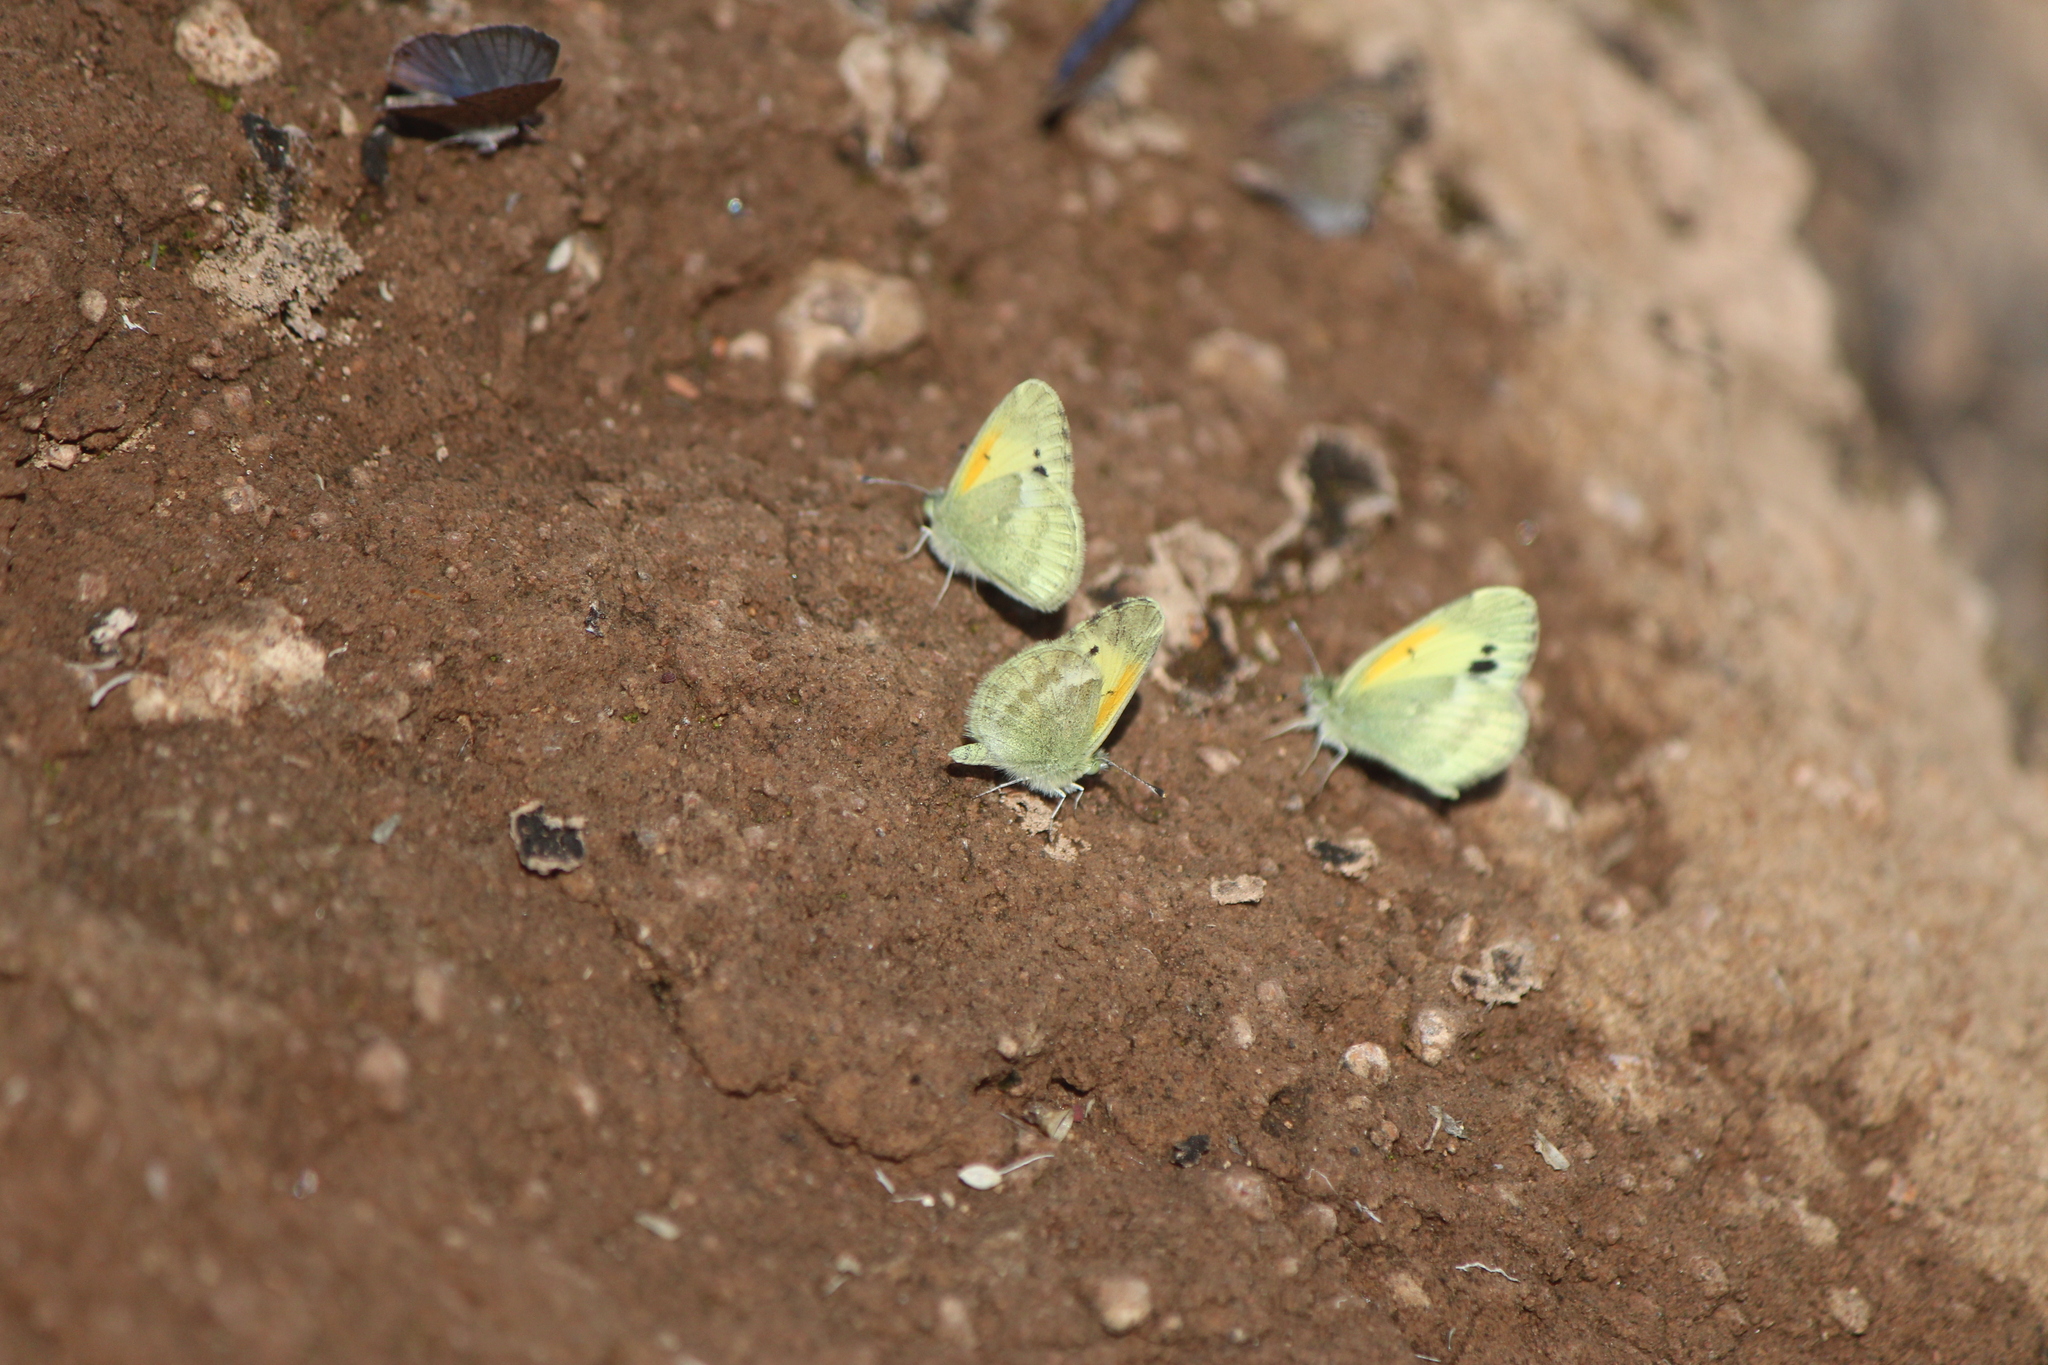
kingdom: Animalia
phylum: Arthropoda
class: Insecta
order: Lepidoptera
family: Pieridae
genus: Nathalis
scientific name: Nathalis iole
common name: Dainty sulphur
